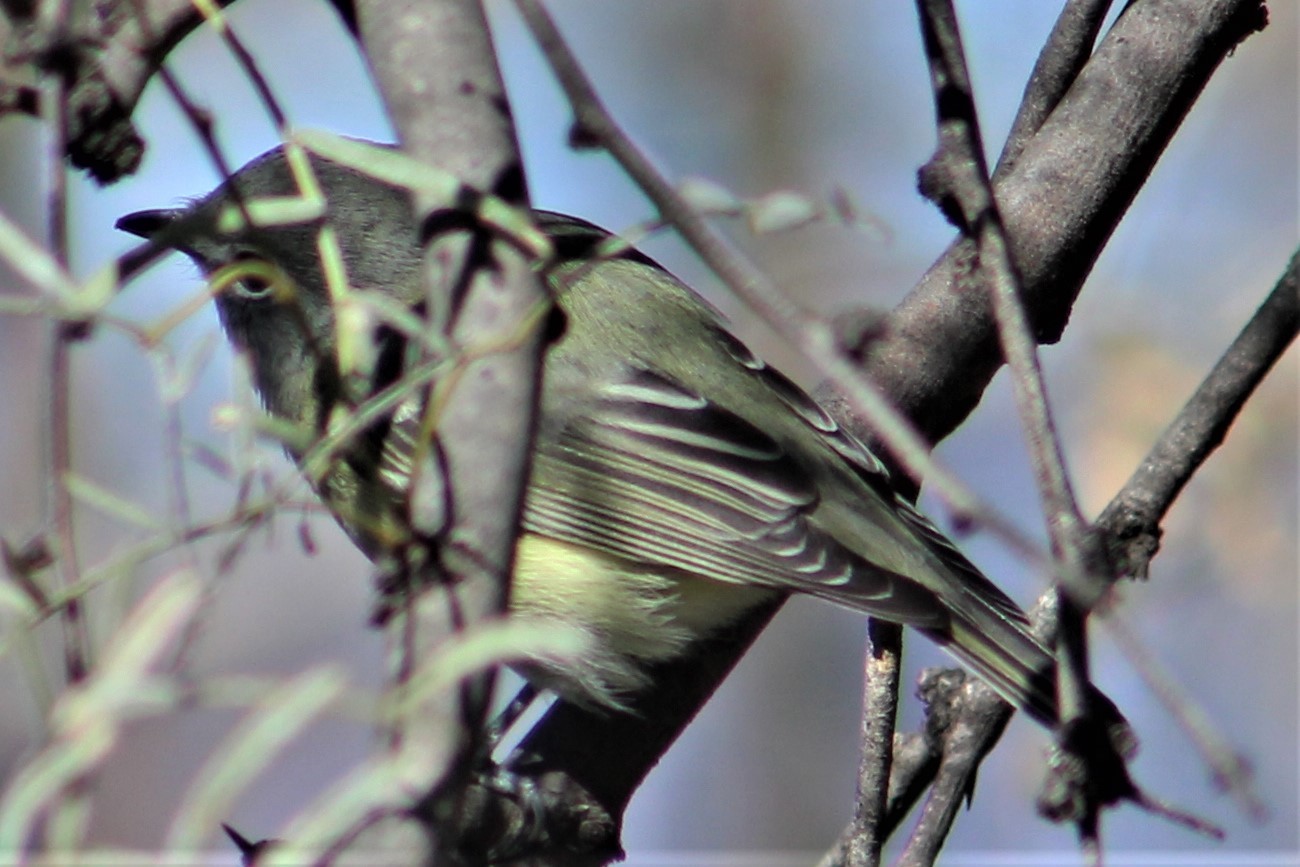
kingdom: Animalia
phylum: Chordata
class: Aves
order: Passeriformes
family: Vireonidae
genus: Vireo
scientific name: Vireo cassinii
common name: Cassin's vireo
